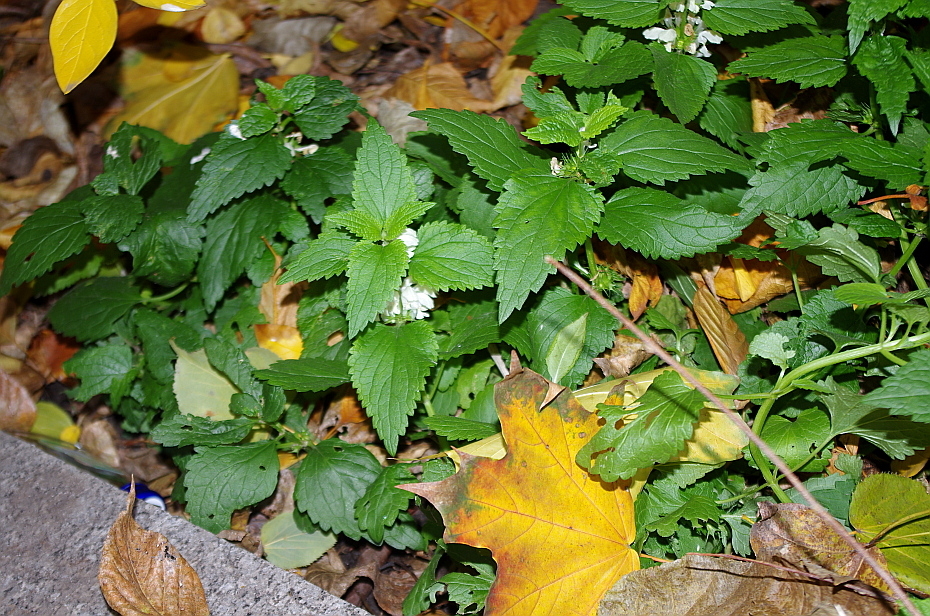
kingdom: Plantae
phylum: Tracheophyta
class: Magnoliopsida
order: Lamiales
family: Lamiaceae
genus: Lamium
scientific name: Lamium album
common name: White dead-nettle
